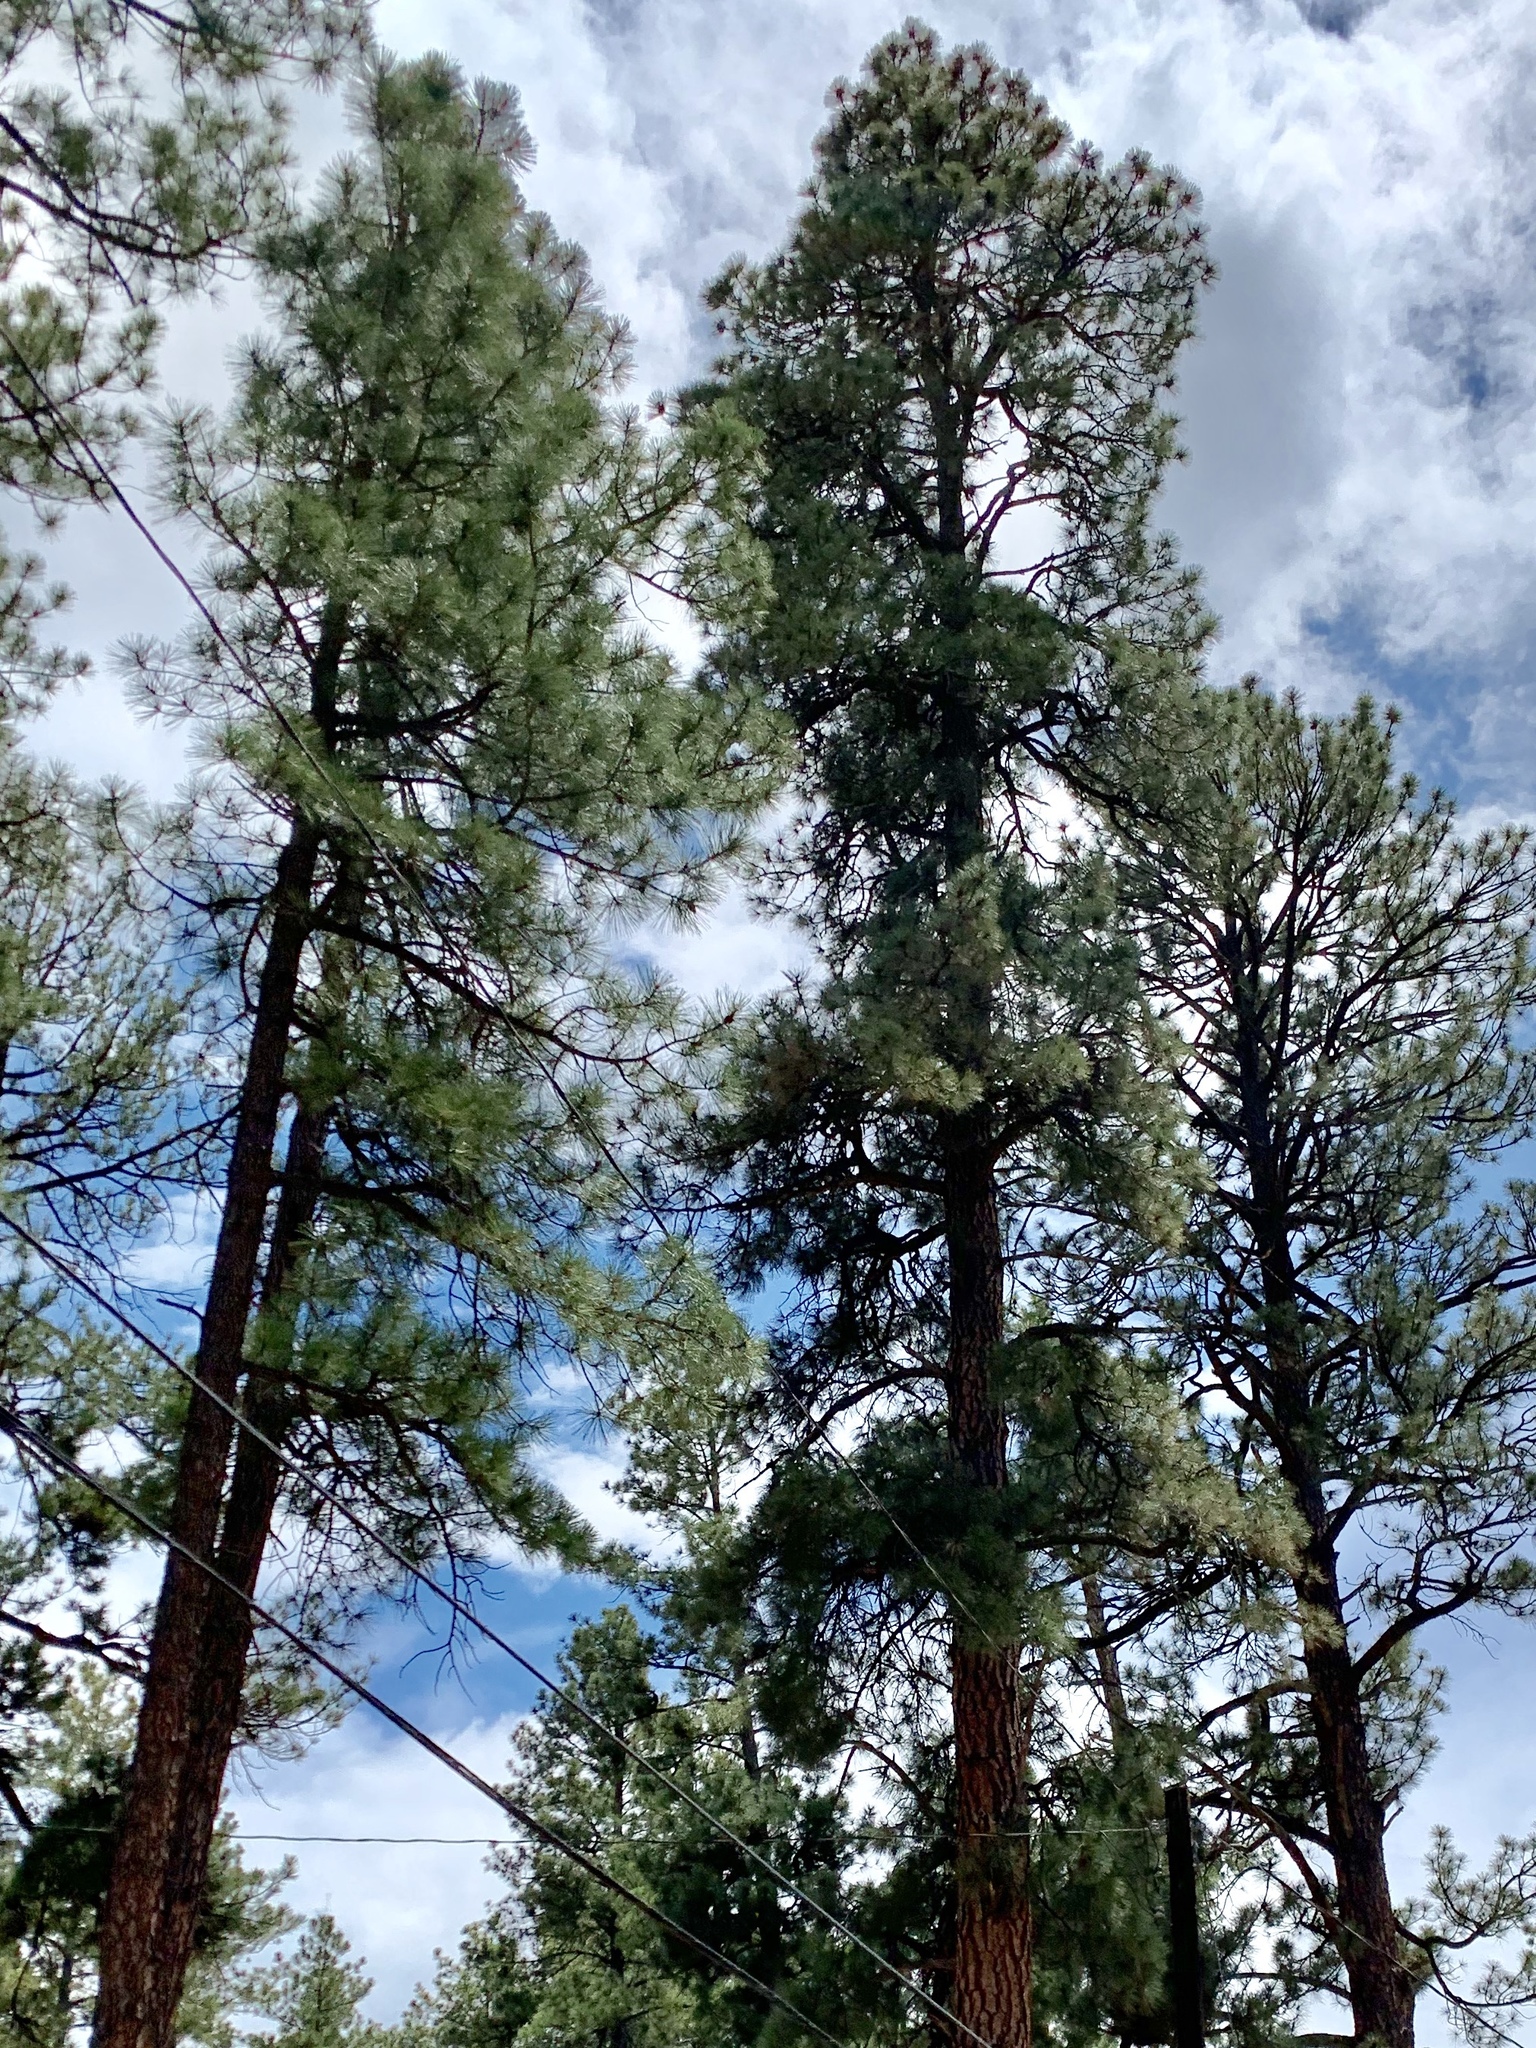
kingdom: Plantae
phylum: Tracheophyta
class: Pinopsida
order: Pinales
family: Pinaceae
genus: Pinus
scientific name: Pinus ponderosa
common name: Western yellow-pine
